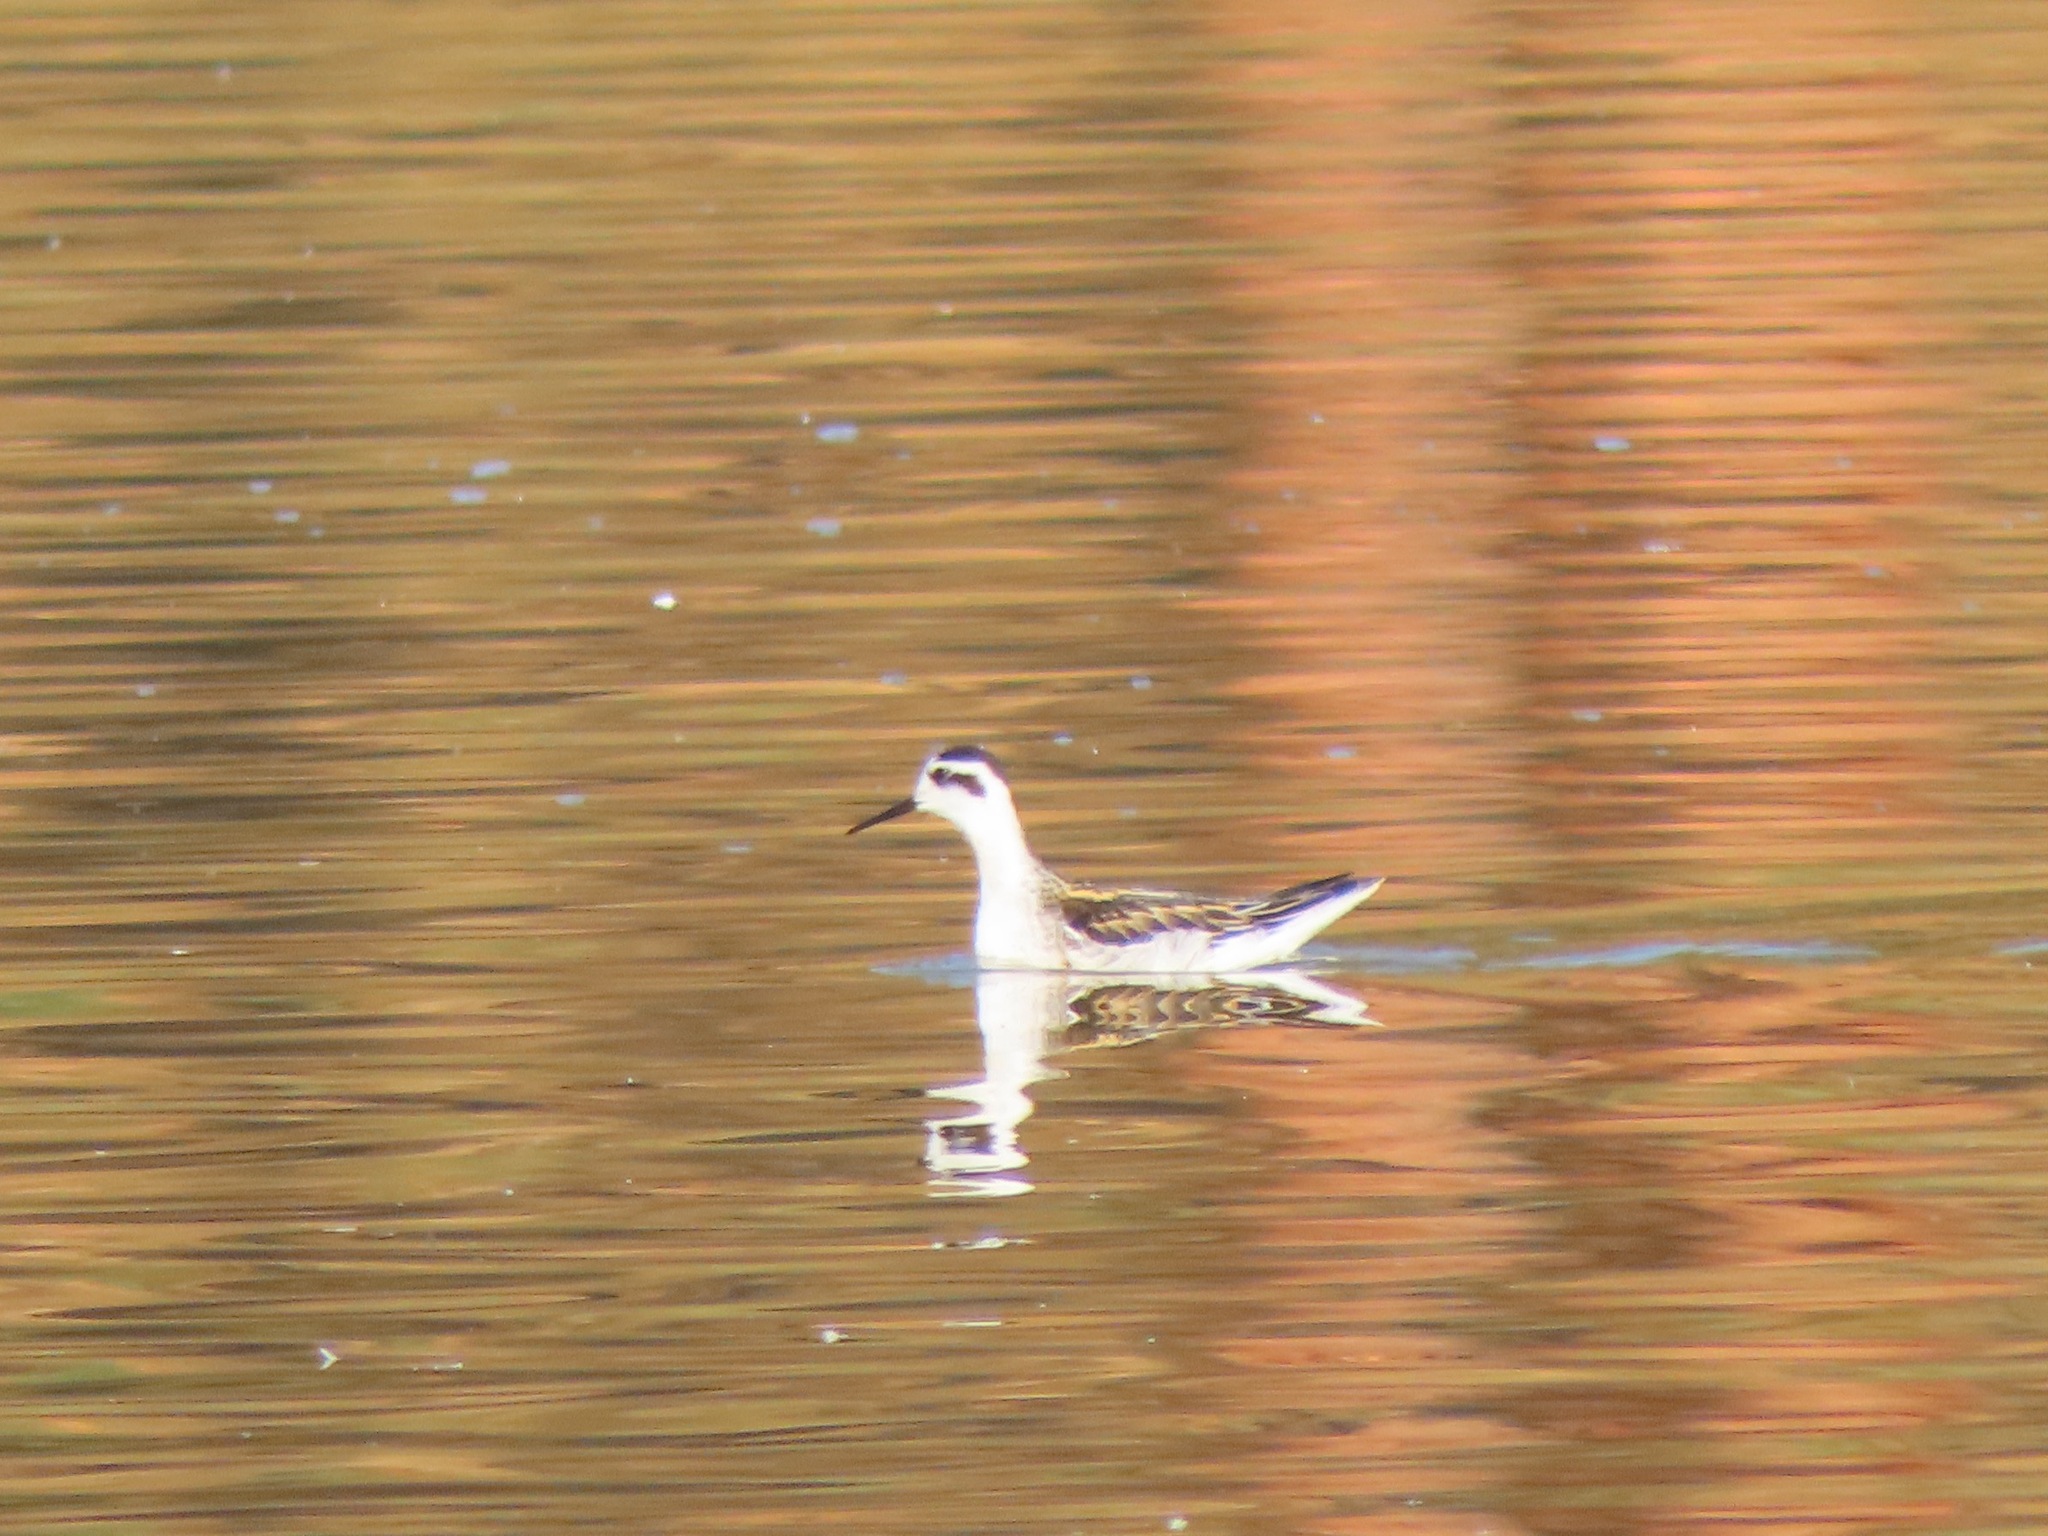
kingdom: Animalia
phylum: Chordata
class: Aves
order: Charadriiformes
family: Scolopacidae
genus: Phalaropus
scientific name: Phalaropus lobatus
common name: Red-necked phalarope
